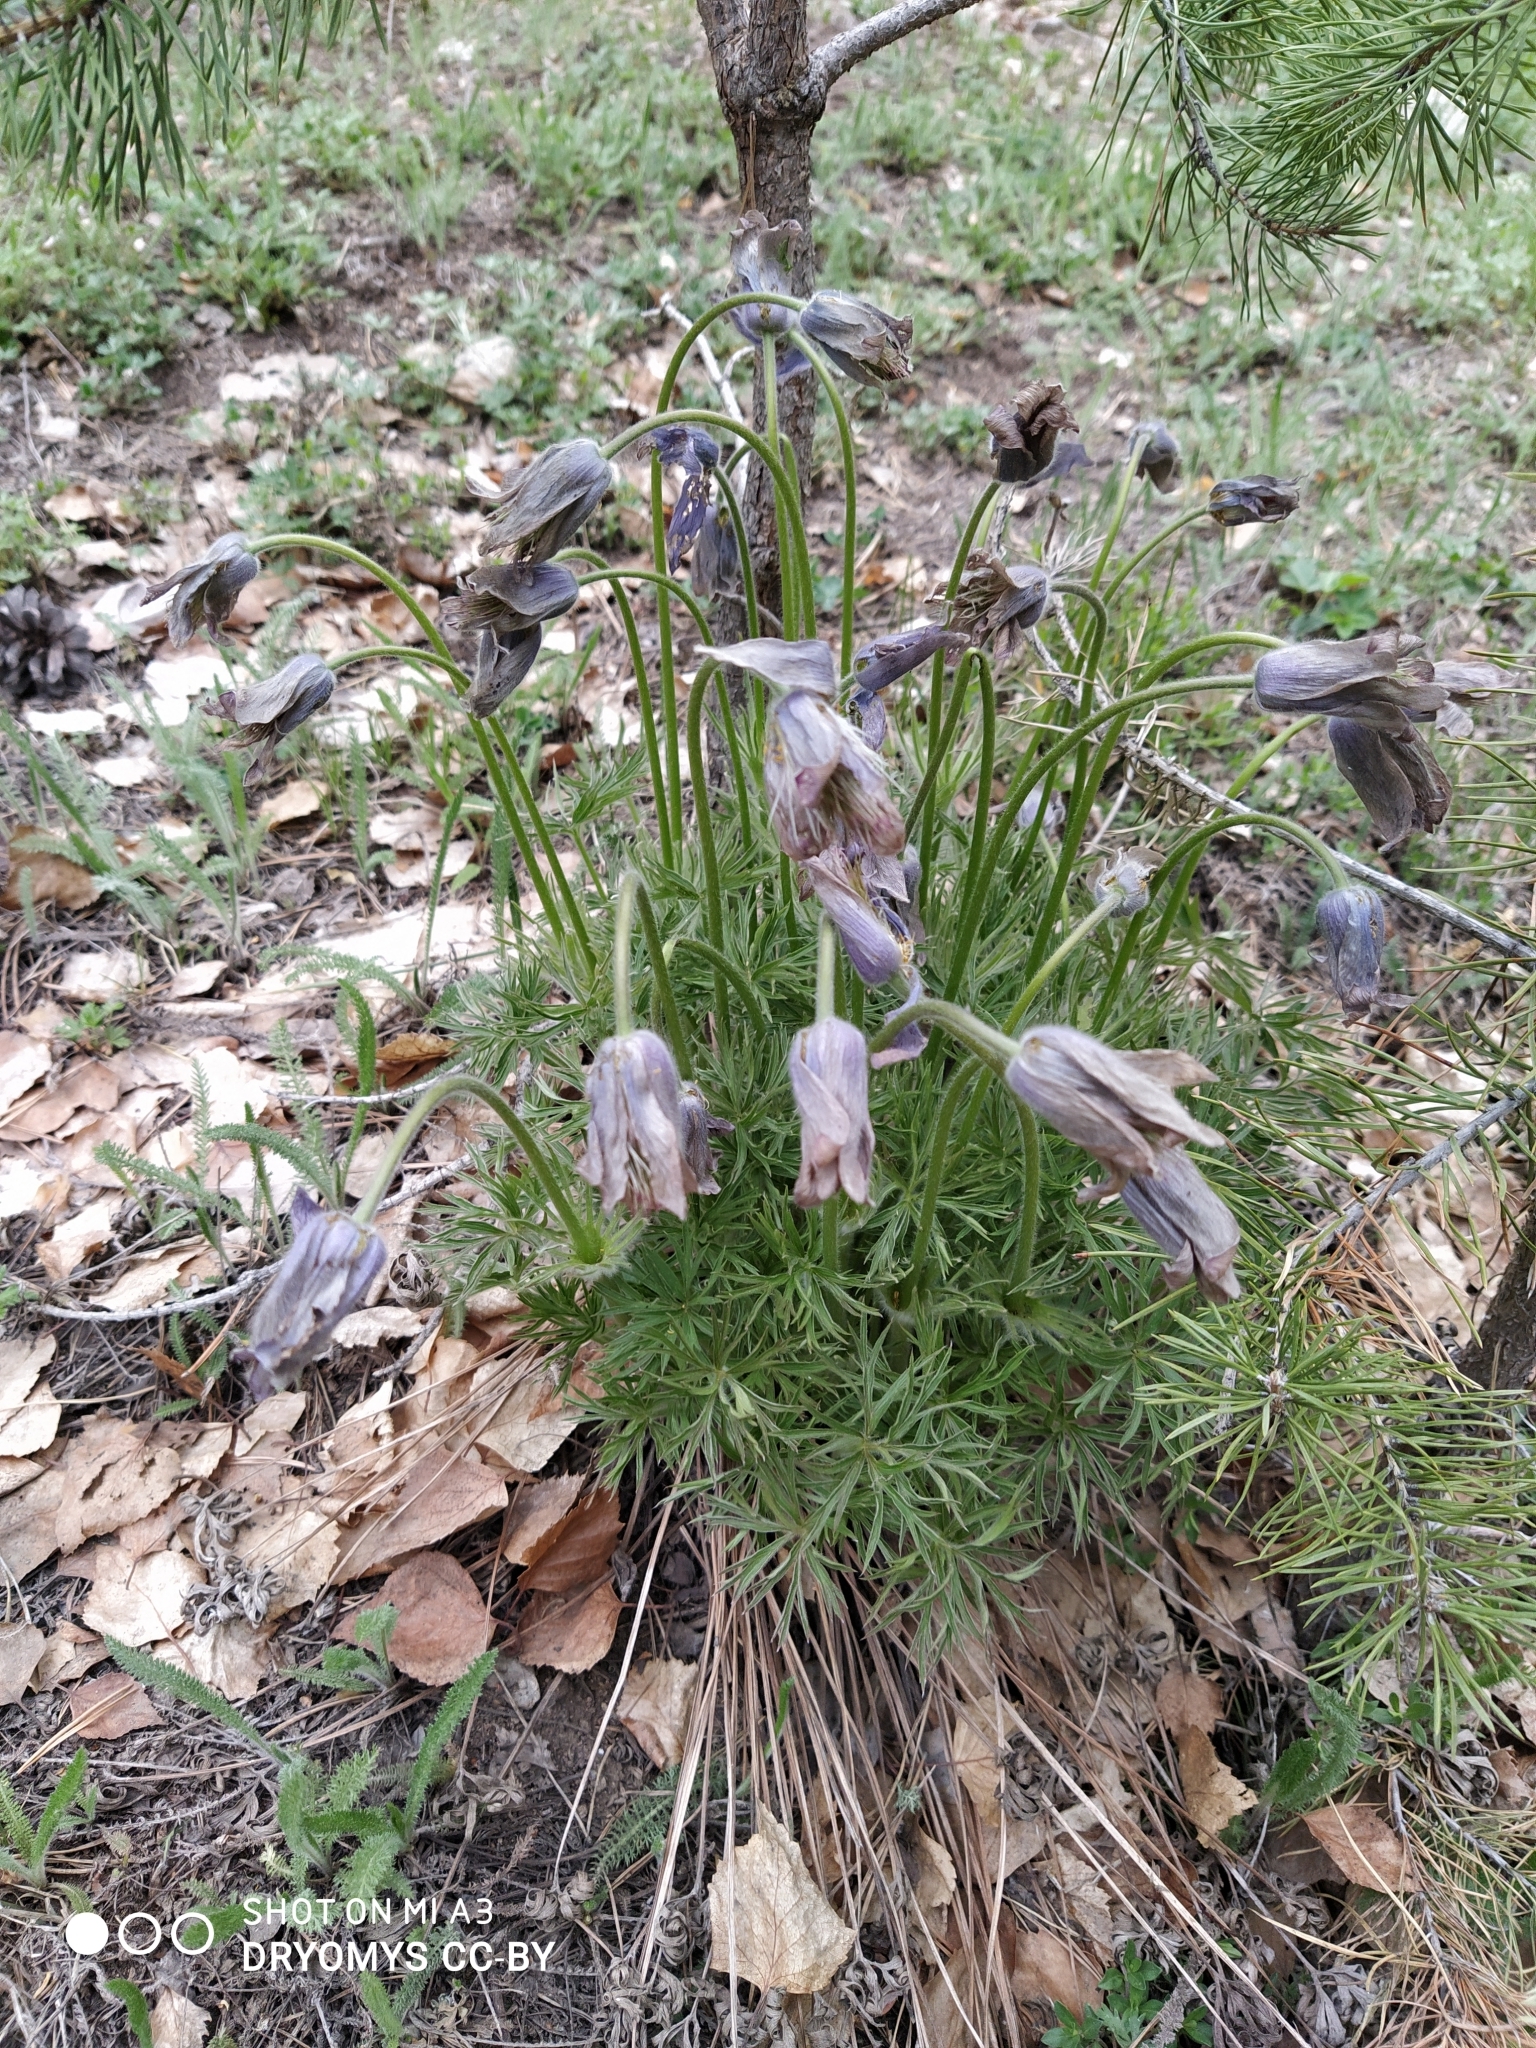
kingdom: Plantae
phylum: Tracheophyta
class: Magnoliopsida
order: Ranunculales
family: Ranunculaceae
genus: Pulsatilla
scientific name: Pulsatilla patens
